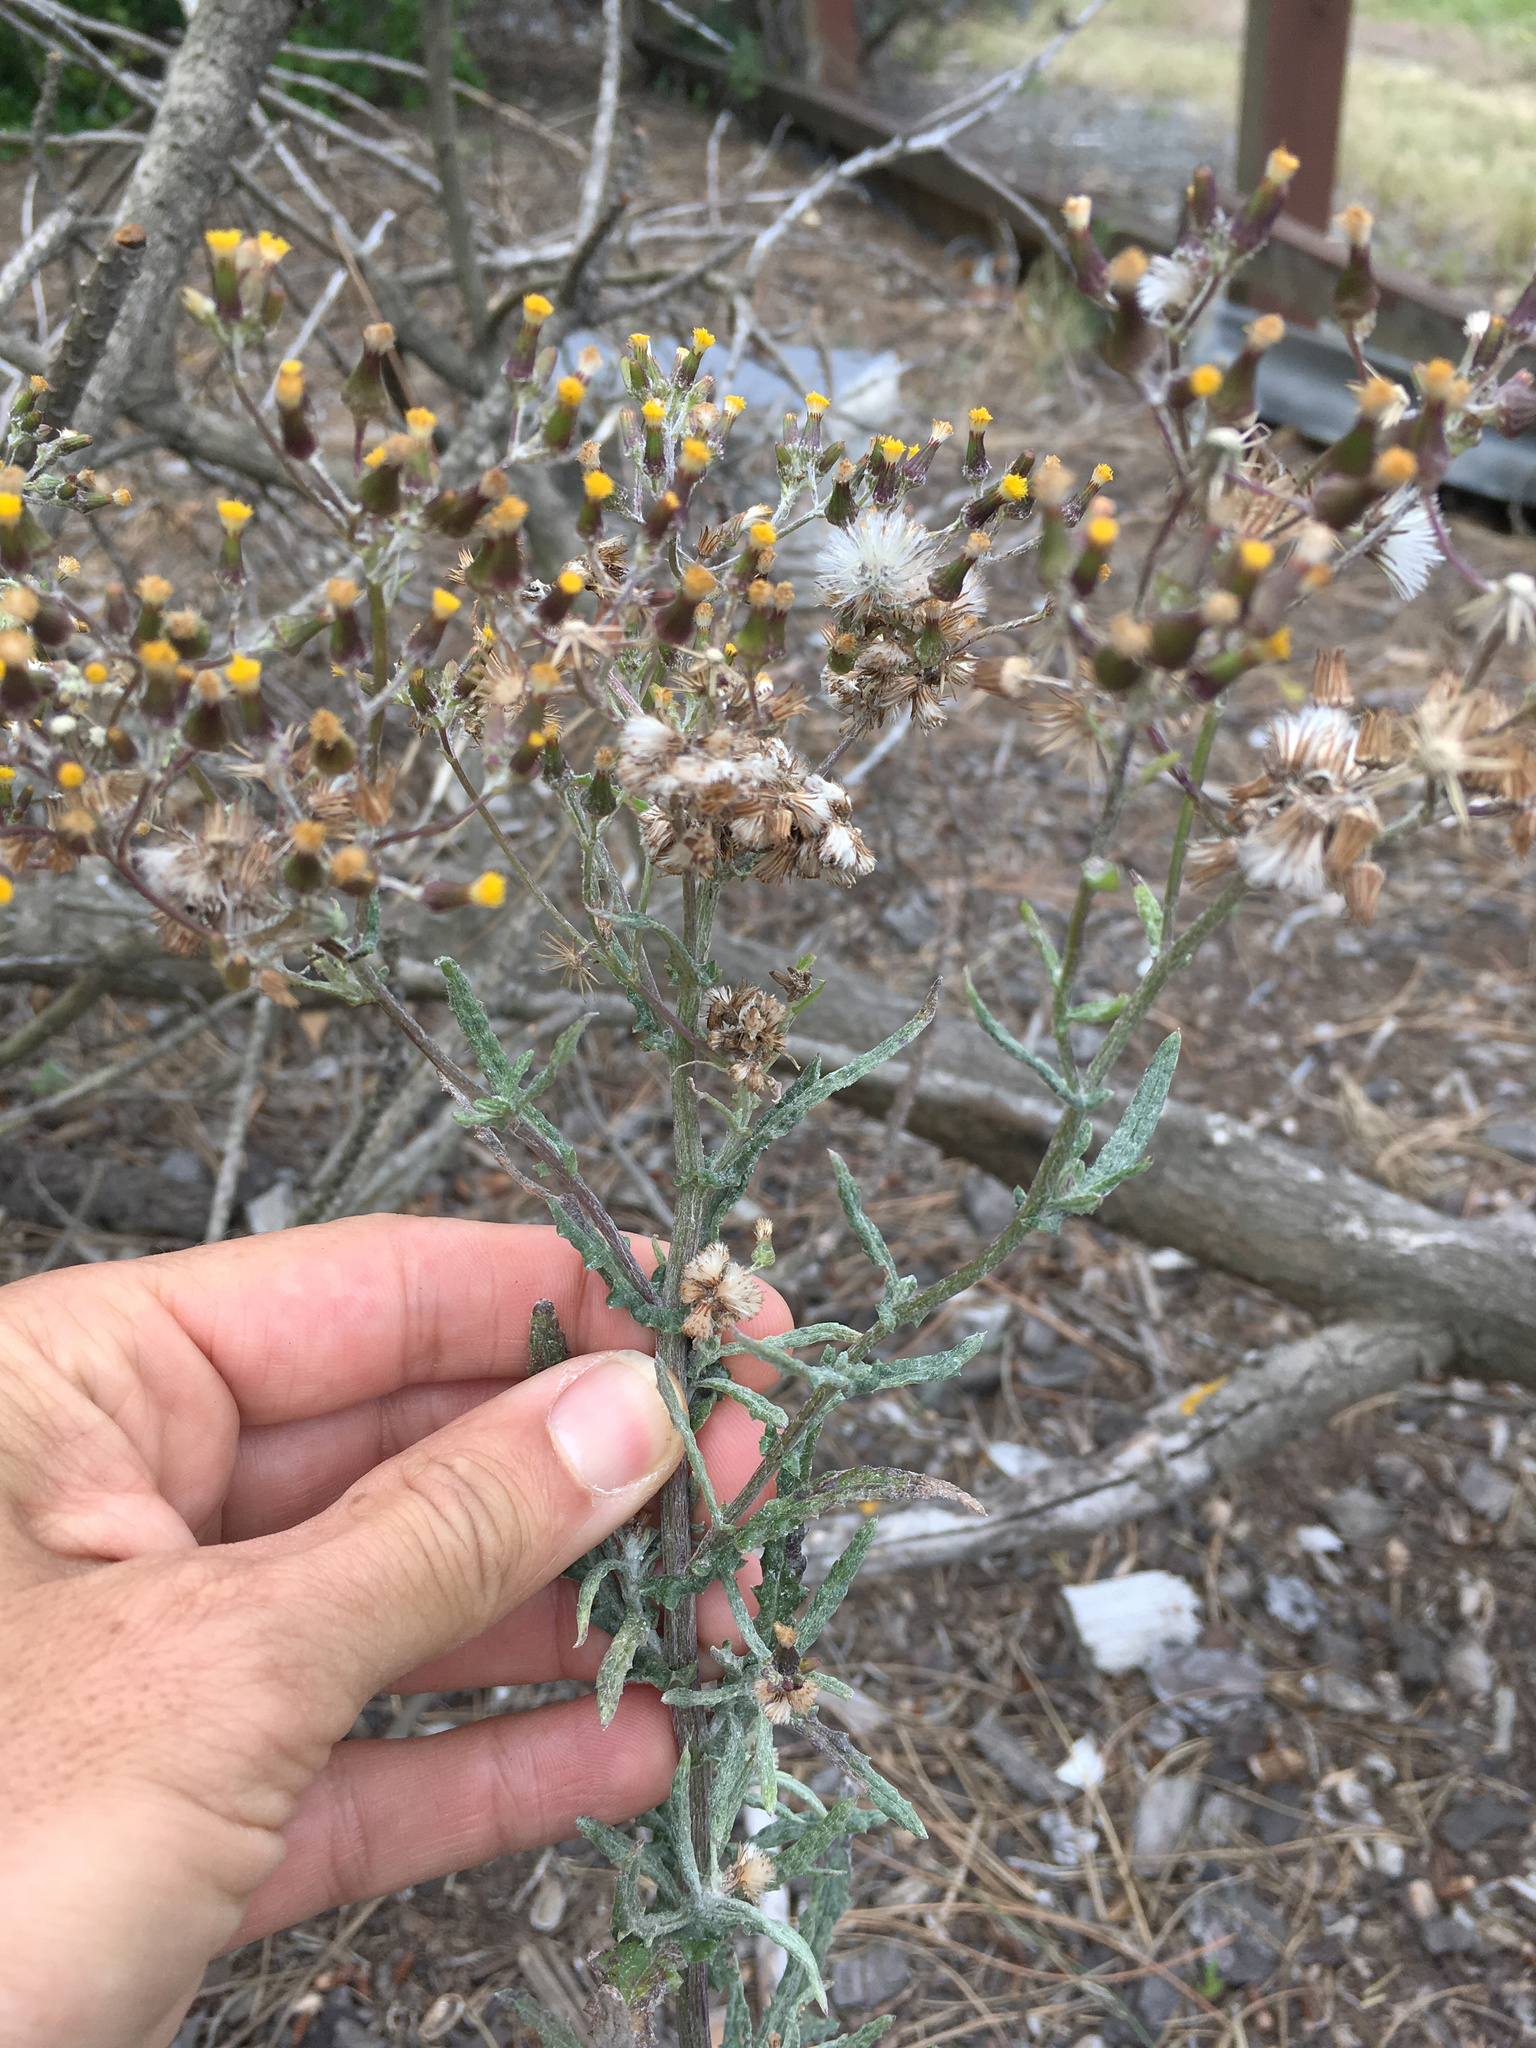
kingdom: Plantae
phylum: Tracheophyta
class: Magnoliopsida
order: Asterales
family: Asteraceae
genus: Senecio
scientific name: Senecio glomeratus
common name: Cutleaf burnweed
